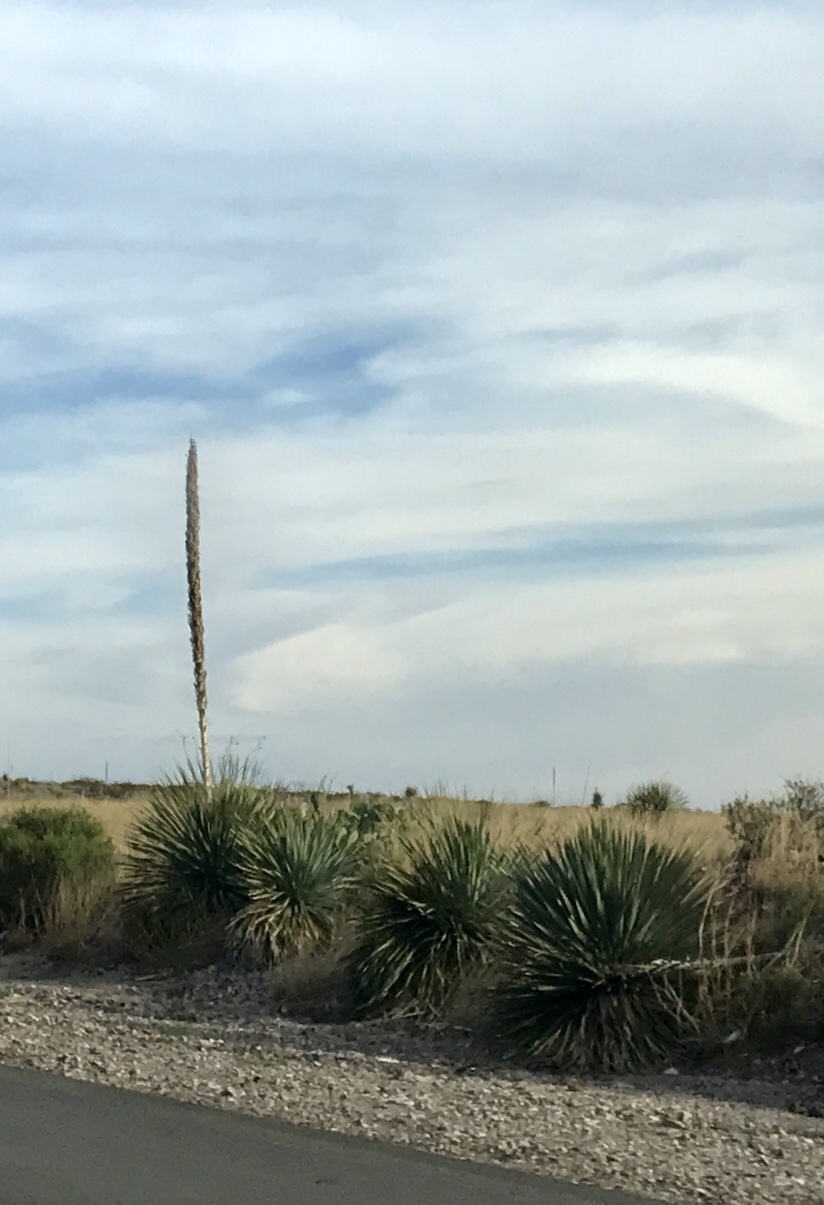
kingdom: Plantae
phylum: Tracheophyta
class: Liliopsida
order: Asparagales
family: Asparagaceae
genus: Dasylirion
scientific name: Dasylirion wheeleri
